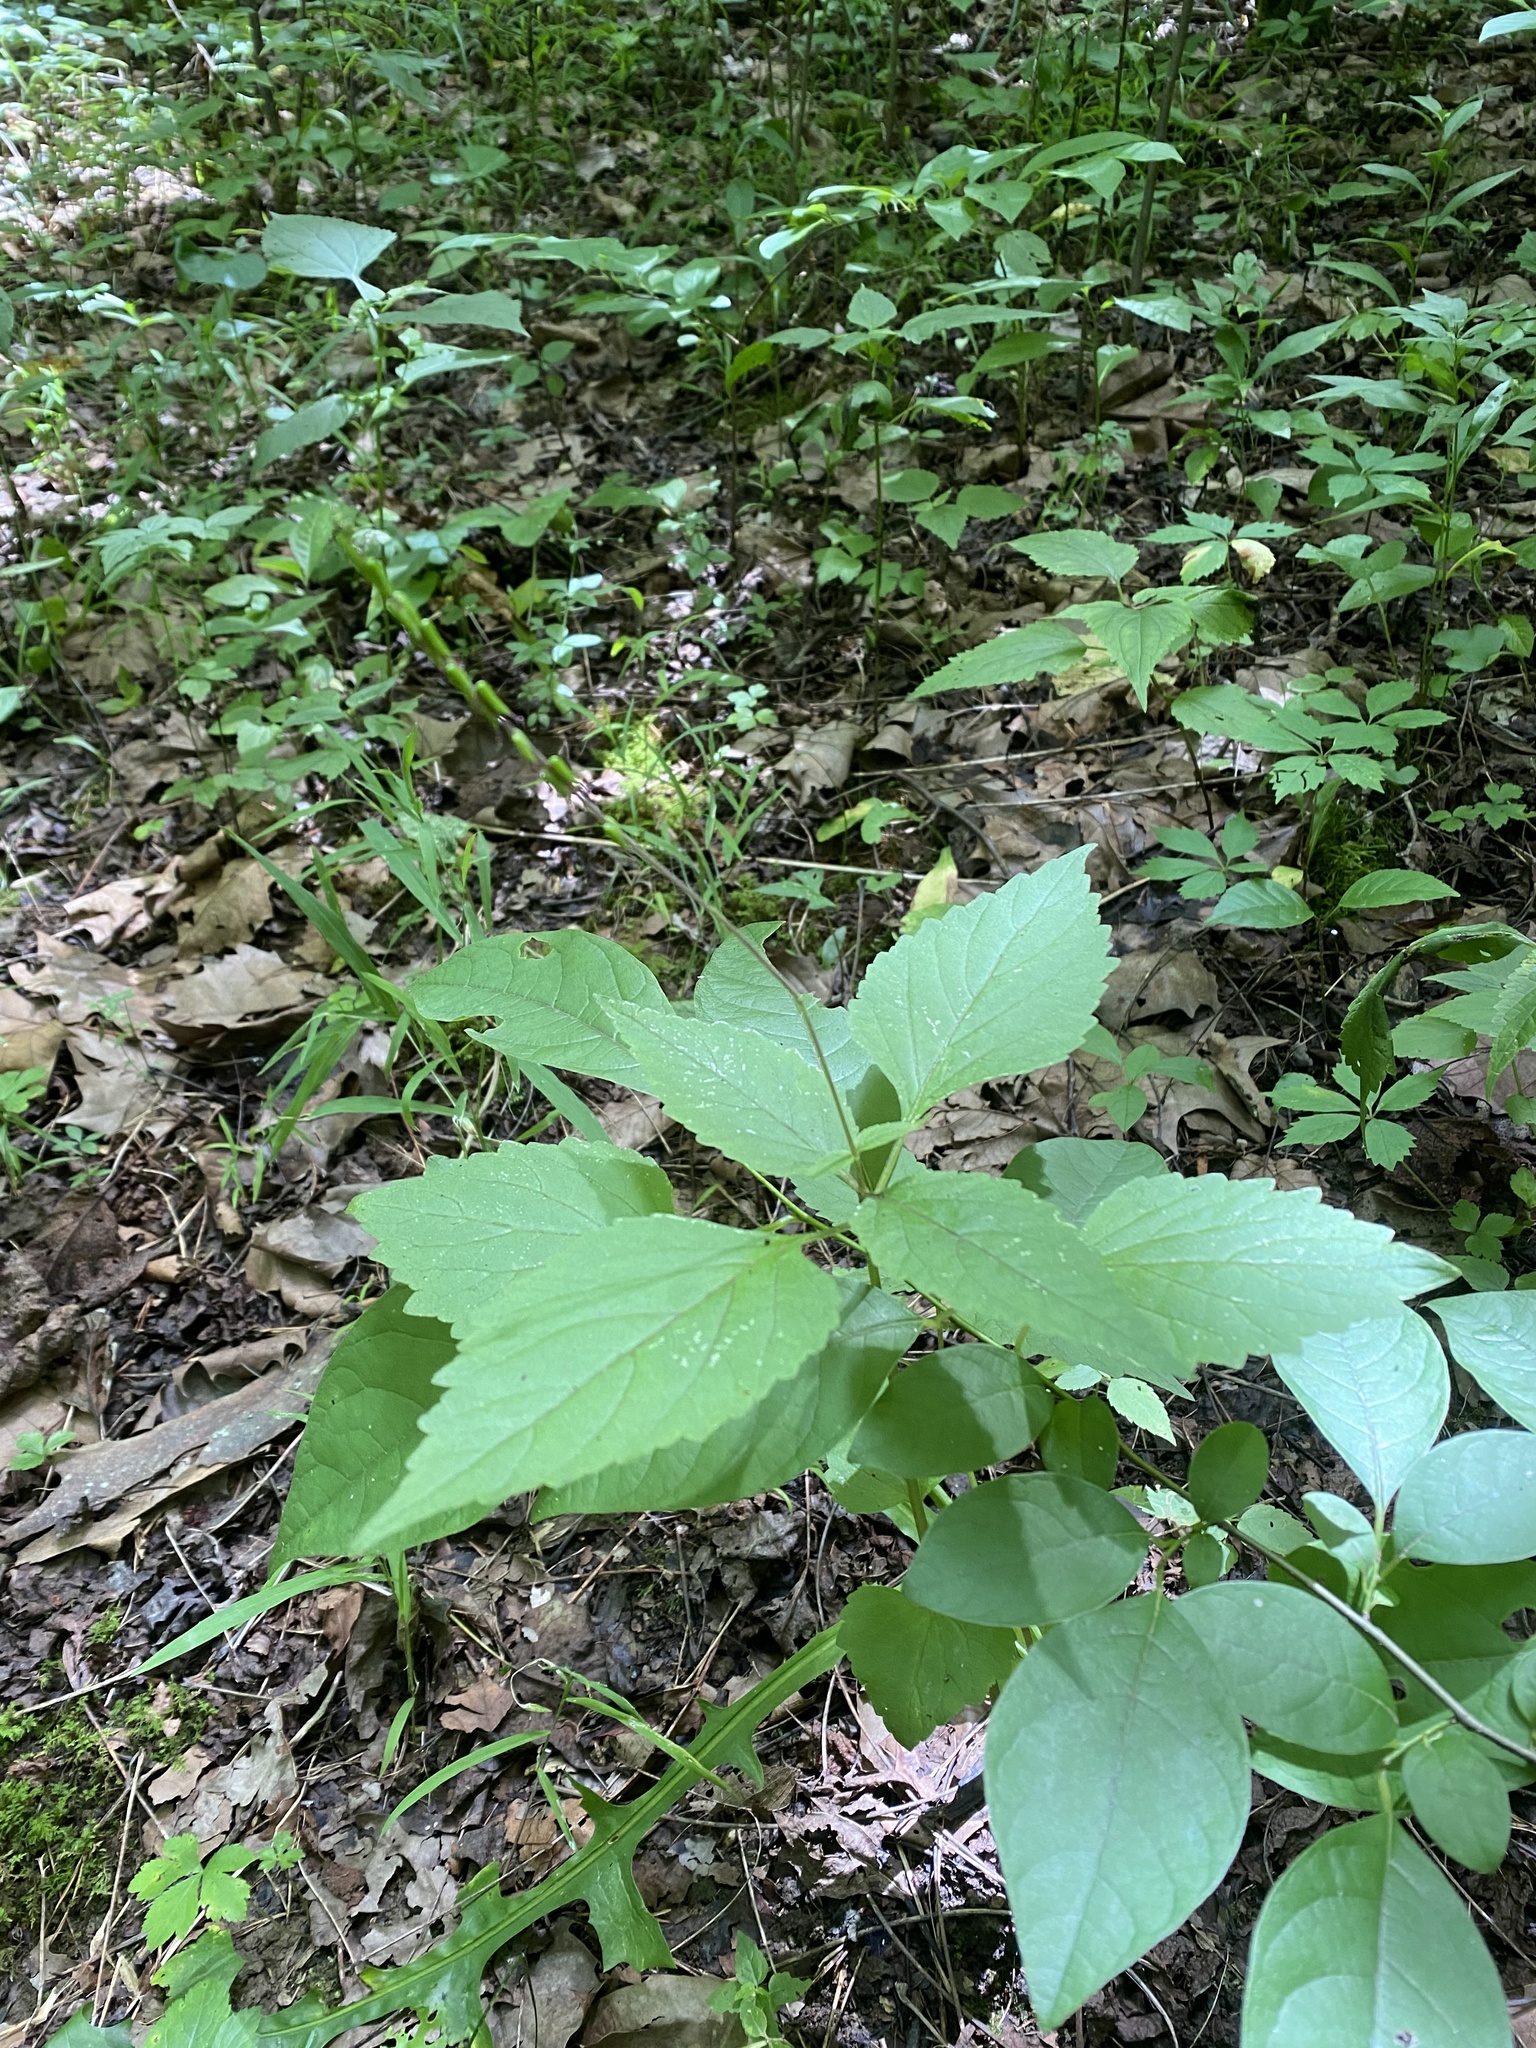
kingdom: Plantae
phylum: Tracheophyta
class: Magnoliopsida
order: Lamiales
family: Phrymaceae
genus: Phryma
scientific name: Phryma leptostachya
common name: American lopseed
